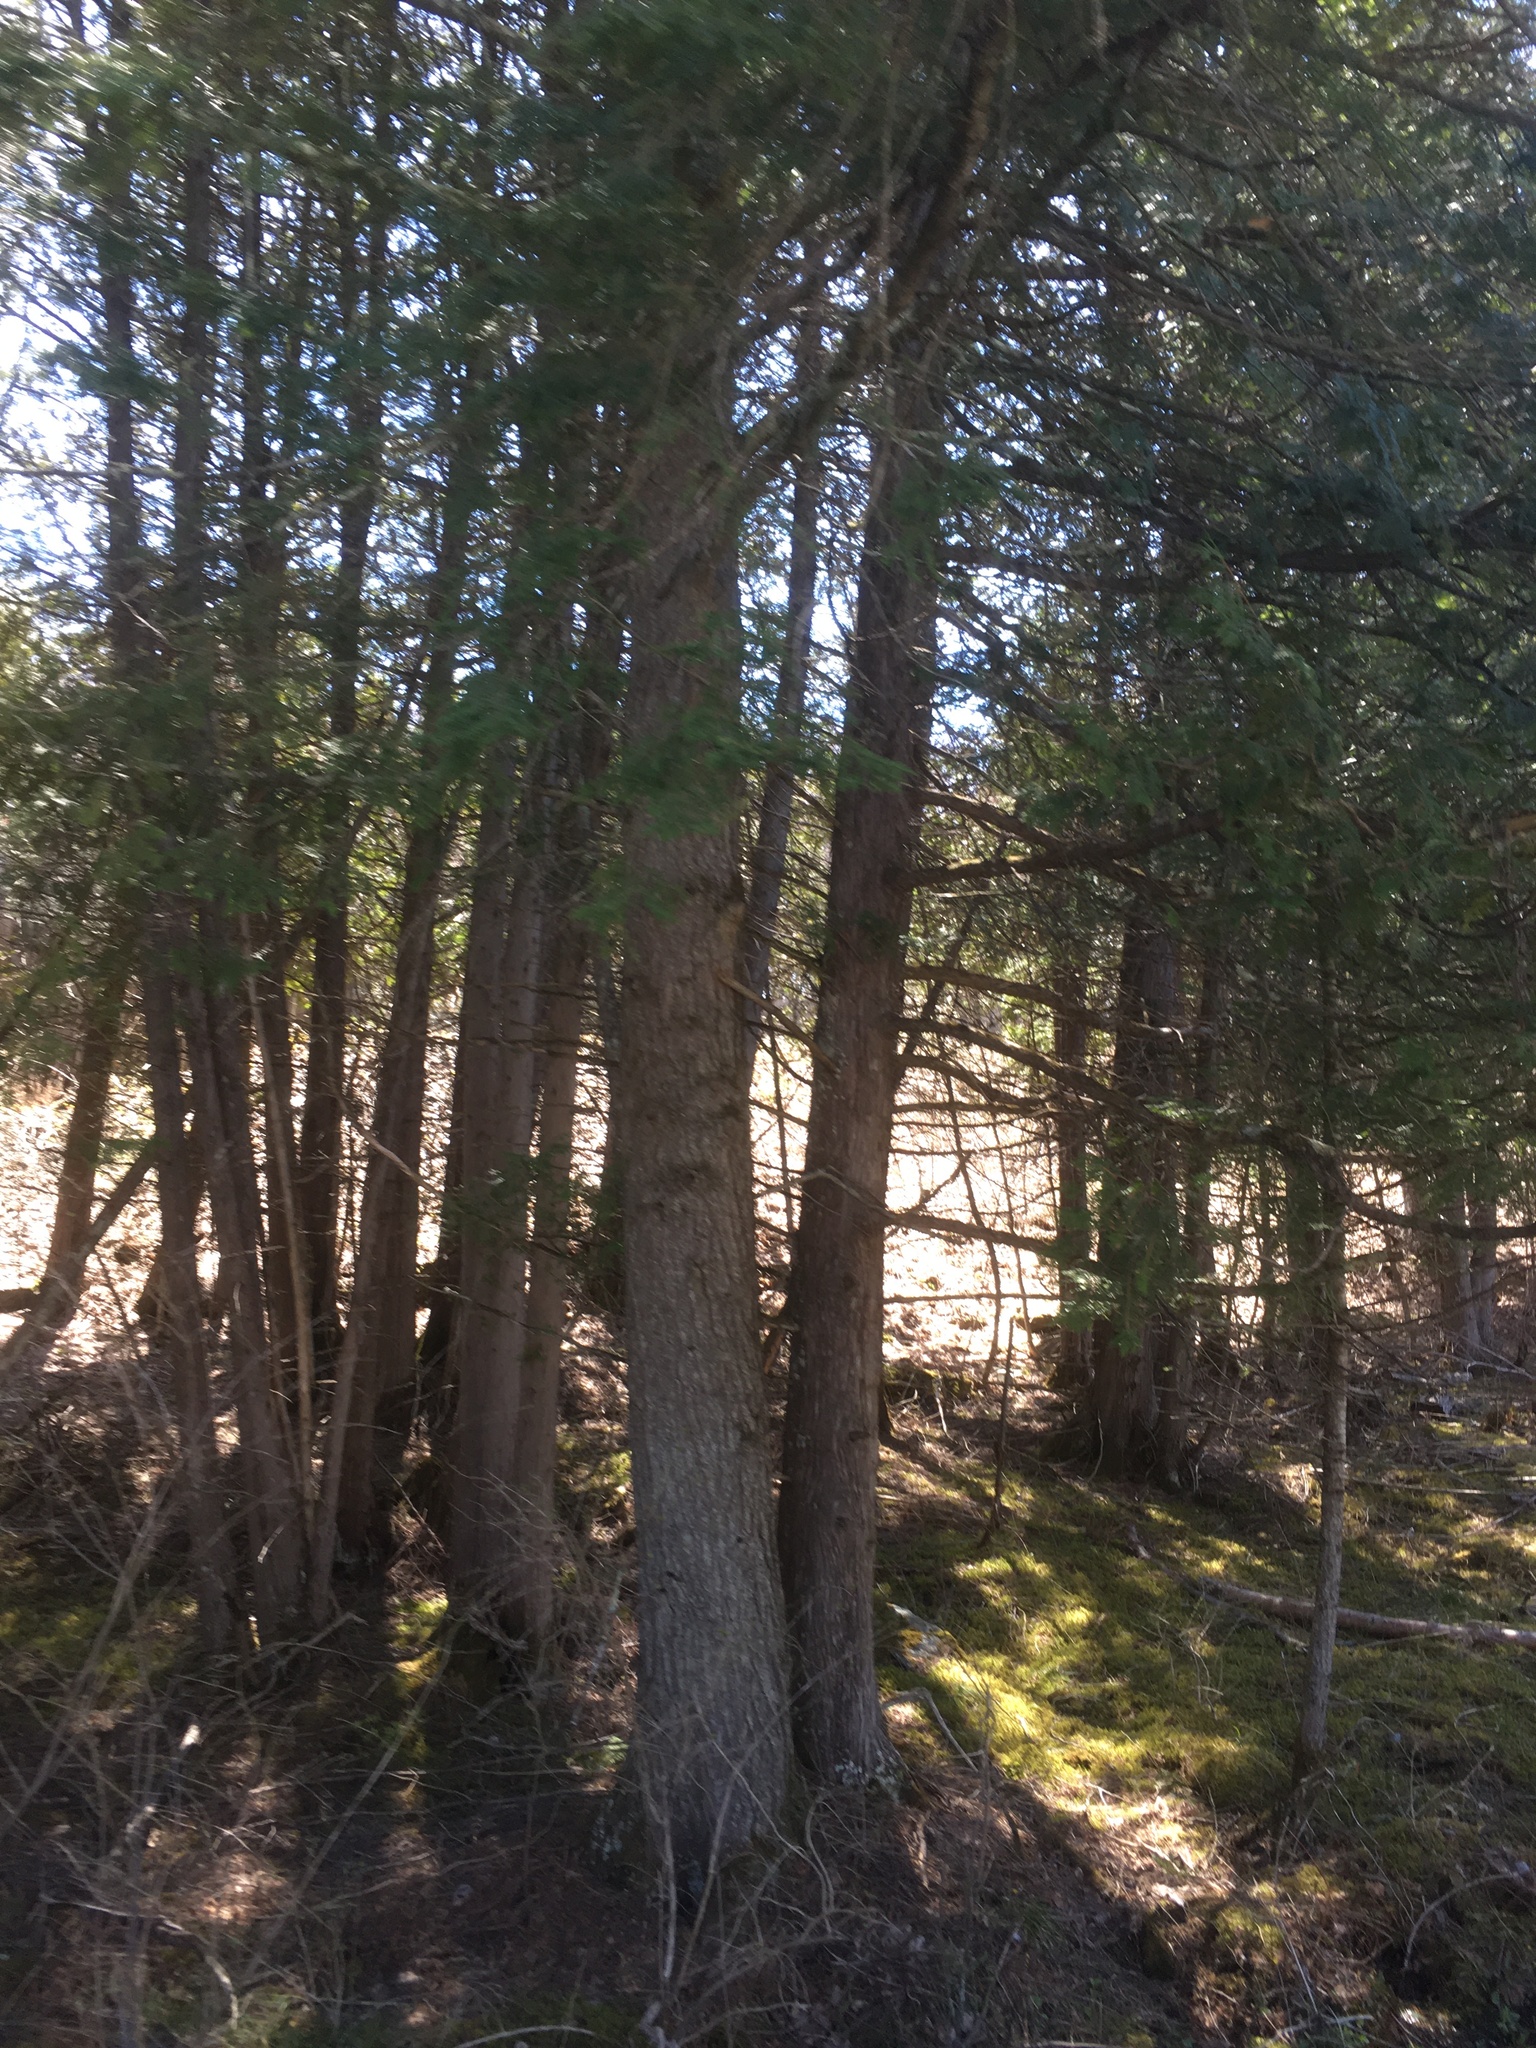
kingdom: Plantae
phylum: Tracheophyta
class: Pinopsida
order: Pinales
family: Pinaceae
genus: Tsuga
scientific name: Tsuga canadensis
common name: Eastern hemlock
